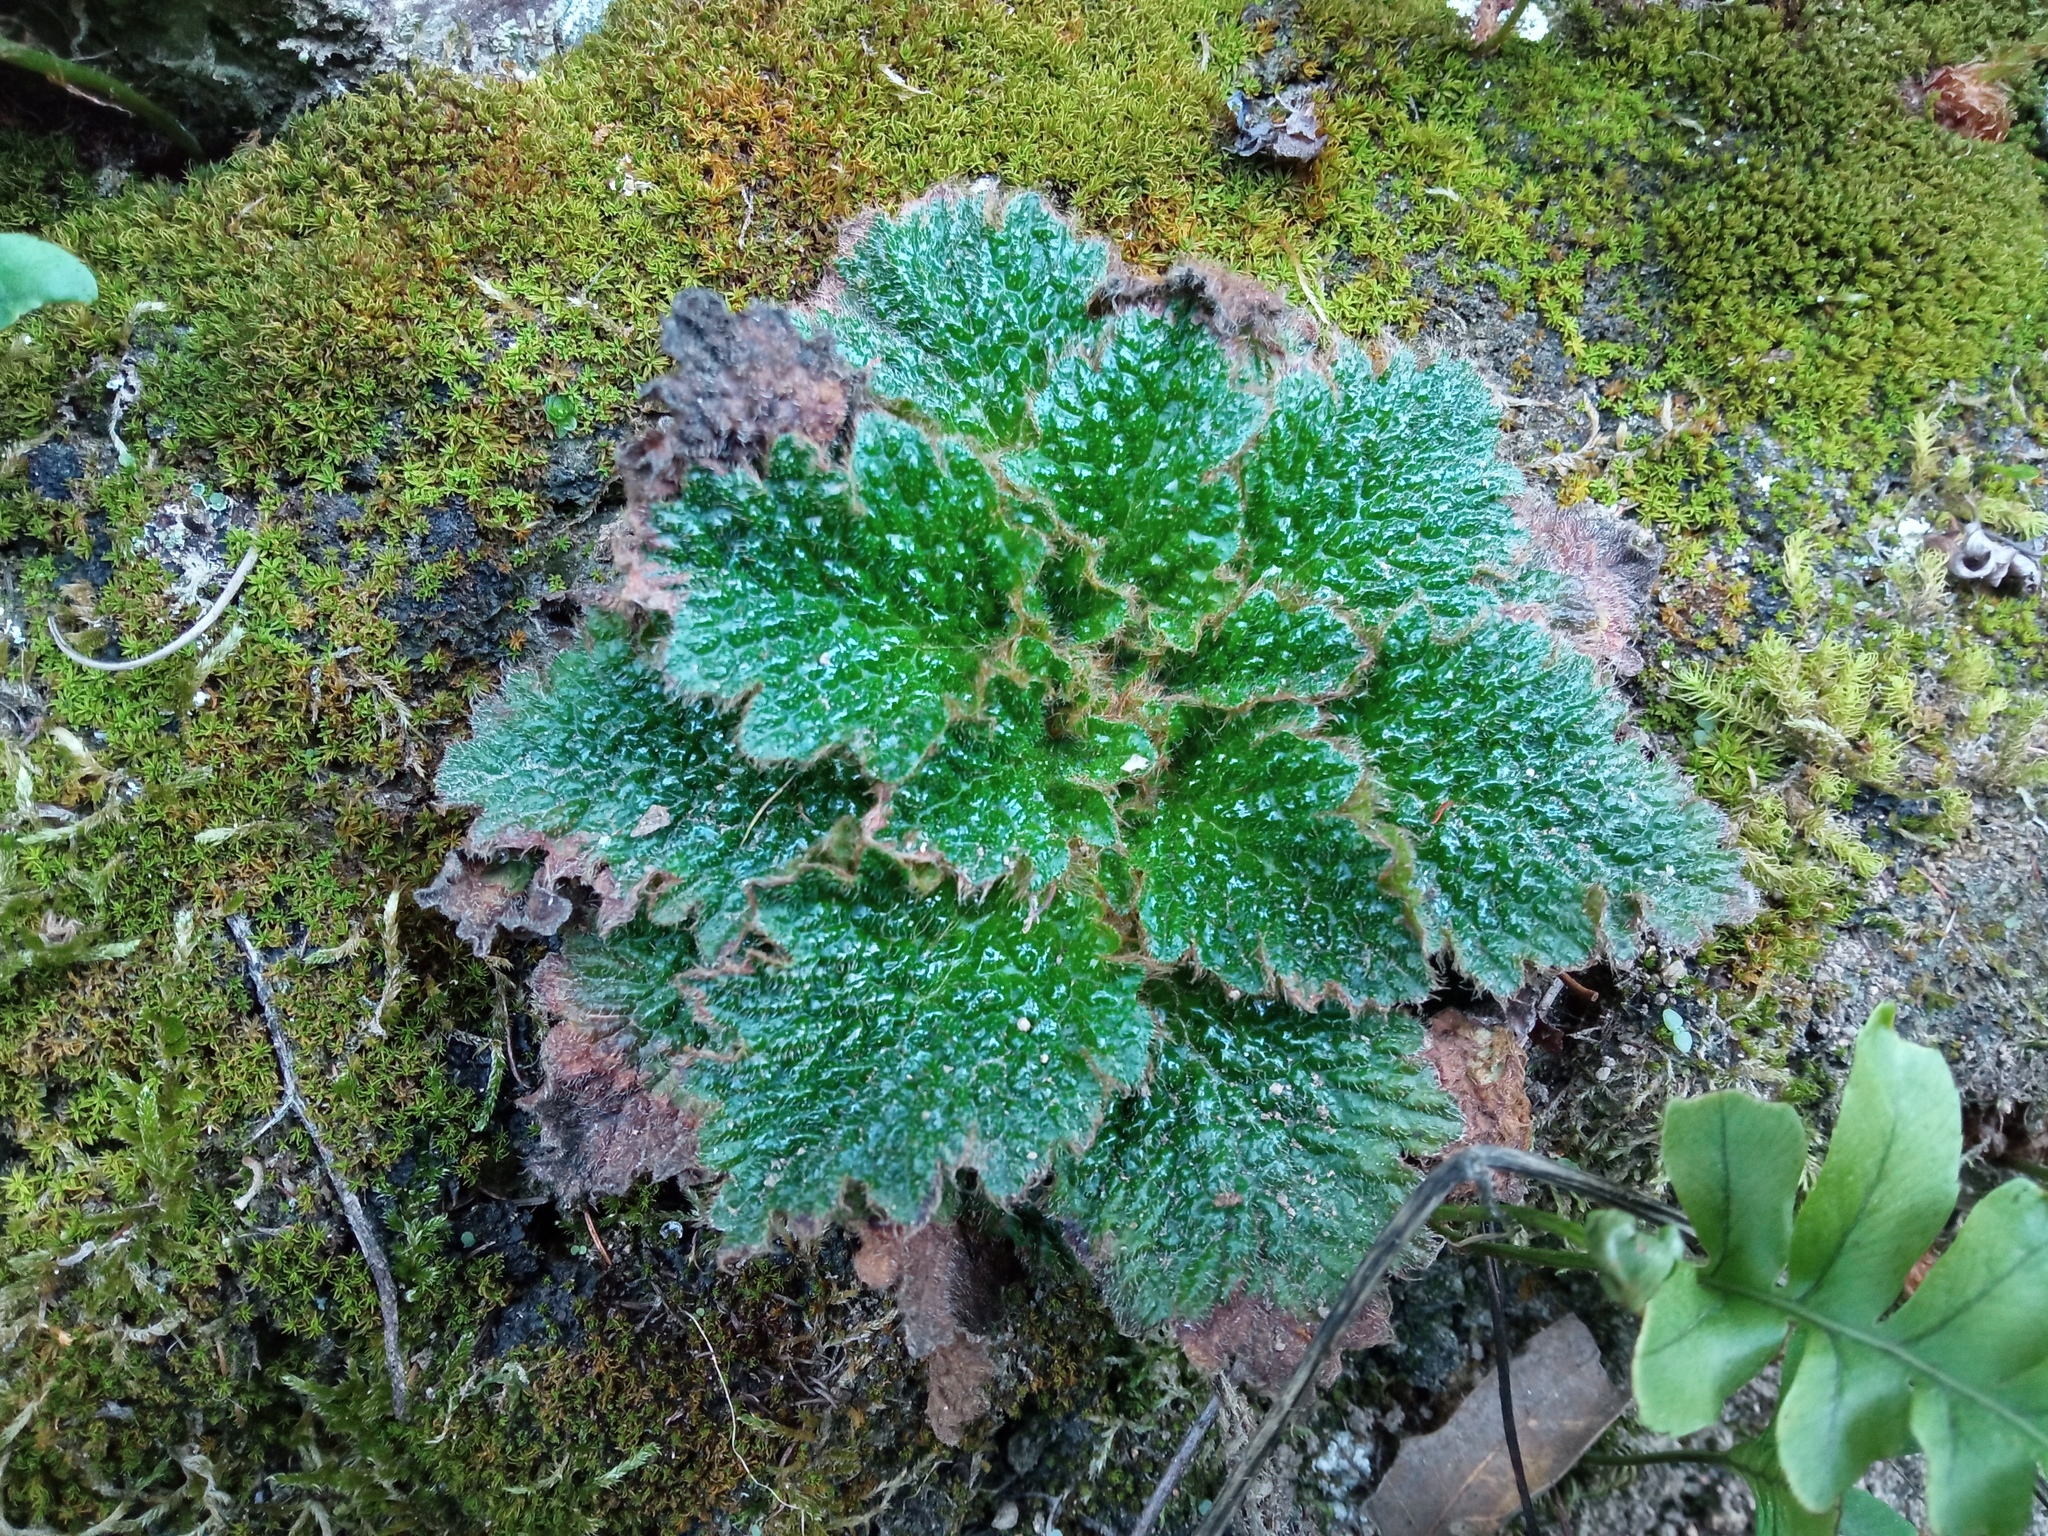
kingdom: Plantae
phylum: Tracheophyta
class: Magnoliopsida
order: Lamiales
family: Gesneriaceae
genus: Ramonda
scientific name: Ramonda myconi
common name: Pyrenean-violet
